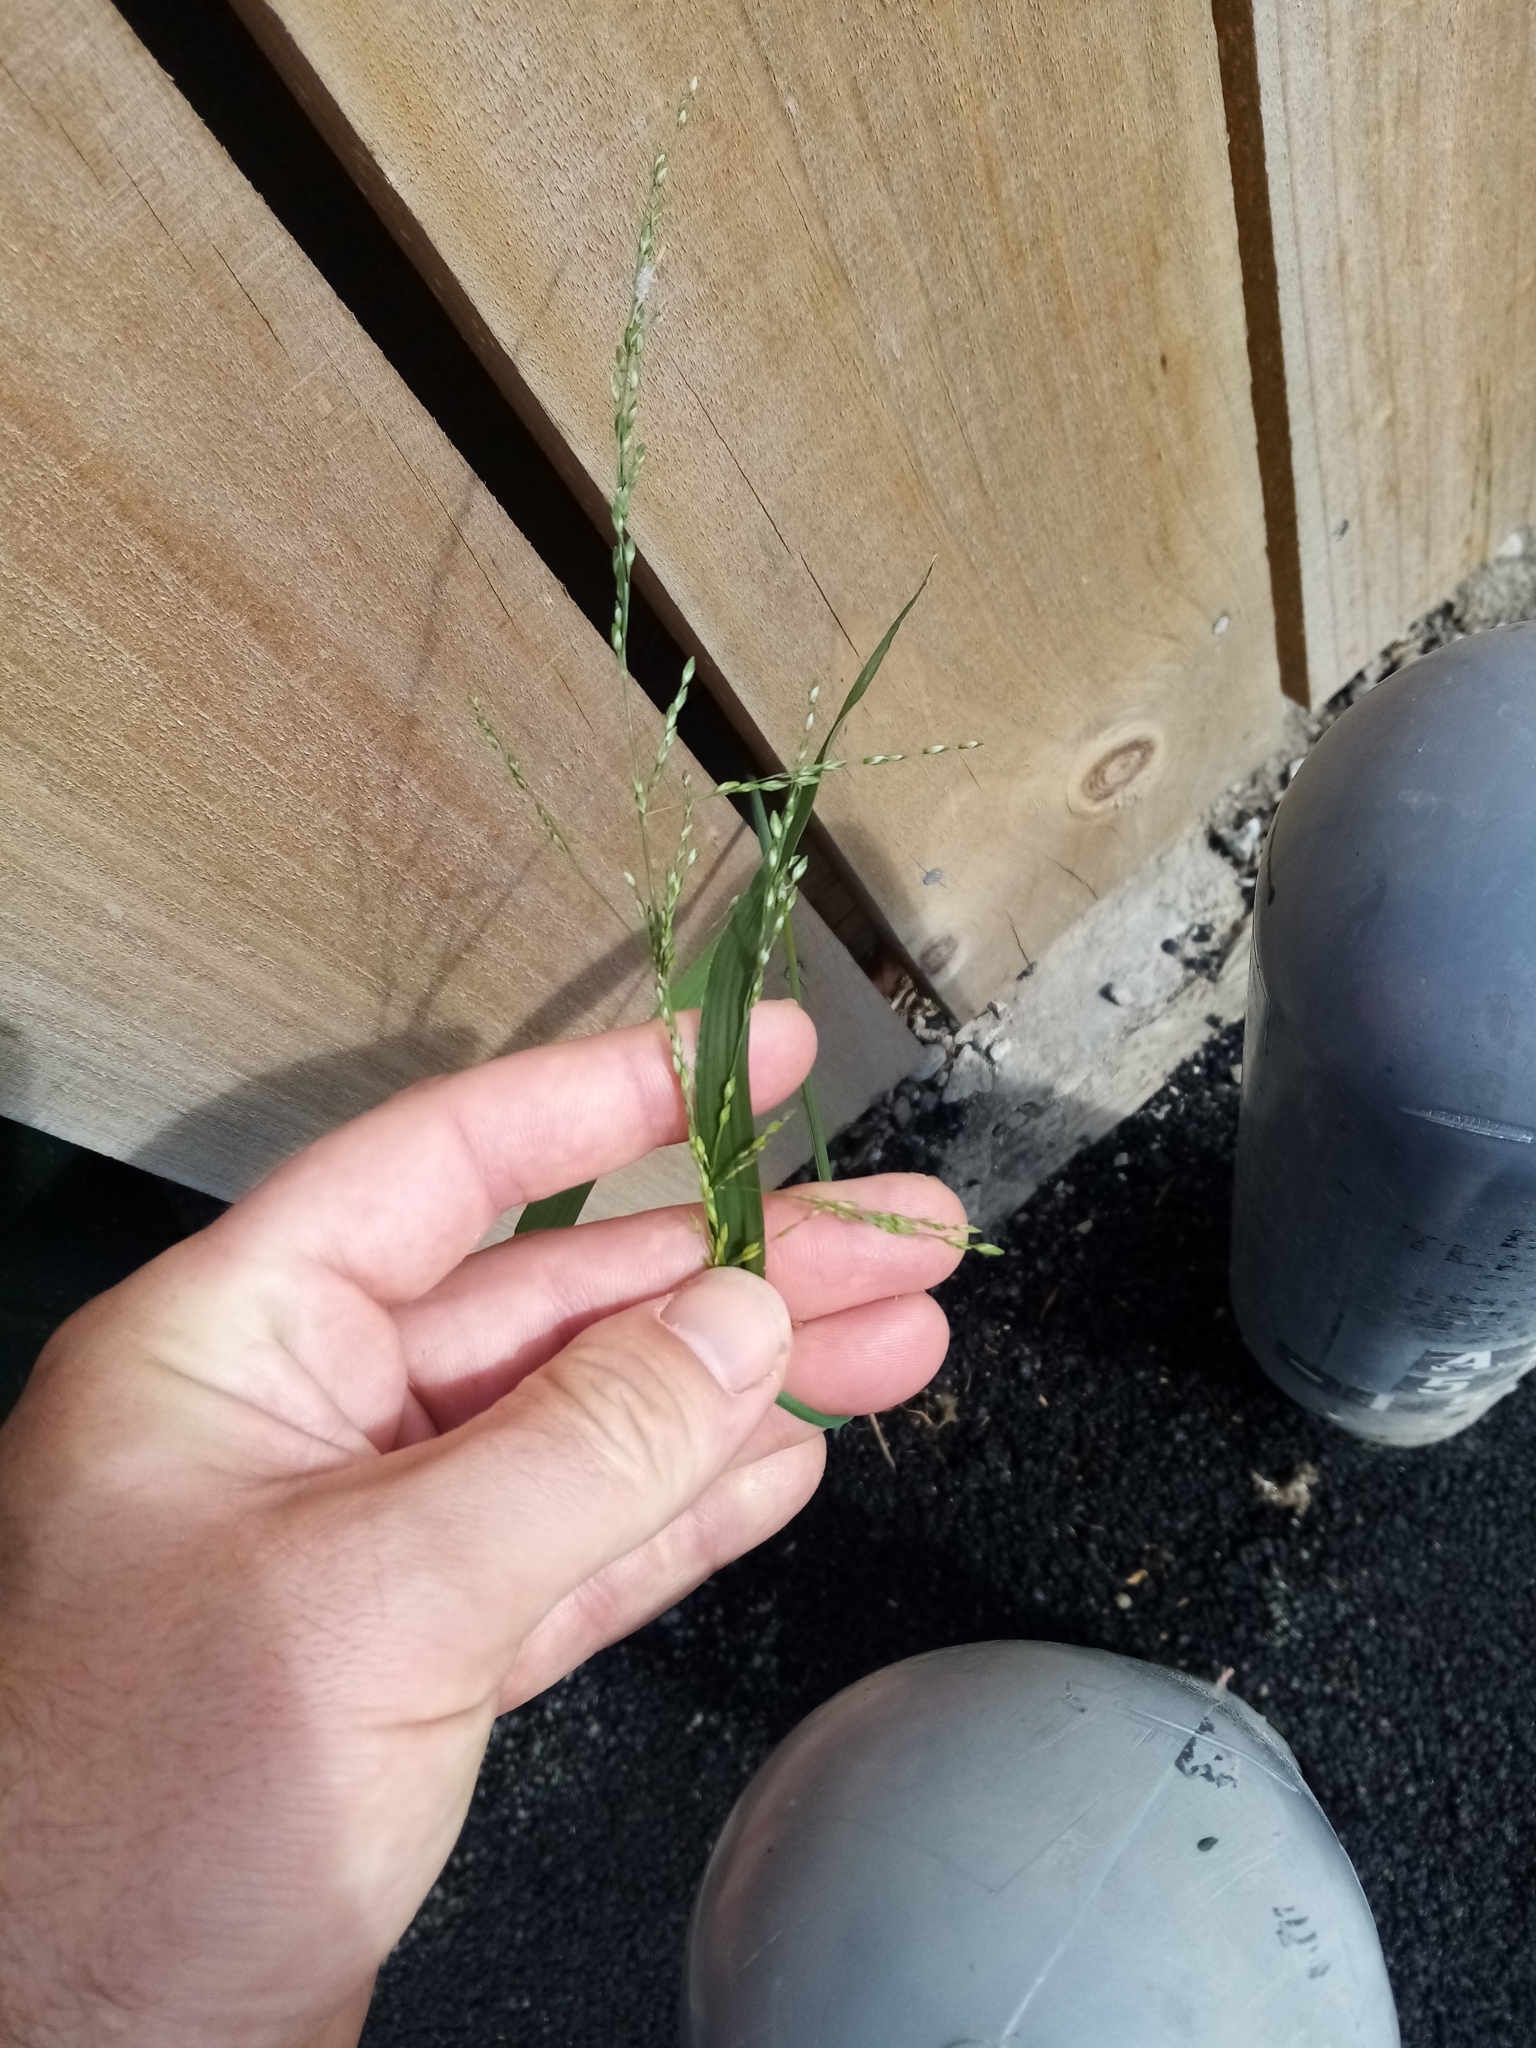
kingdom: Plantae
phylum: Tracheophyta
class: Liliopsida
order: Poales
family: Poaceae
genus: Ehrharta
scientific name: Ehrharta erecta
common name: Panic veldtgrass
